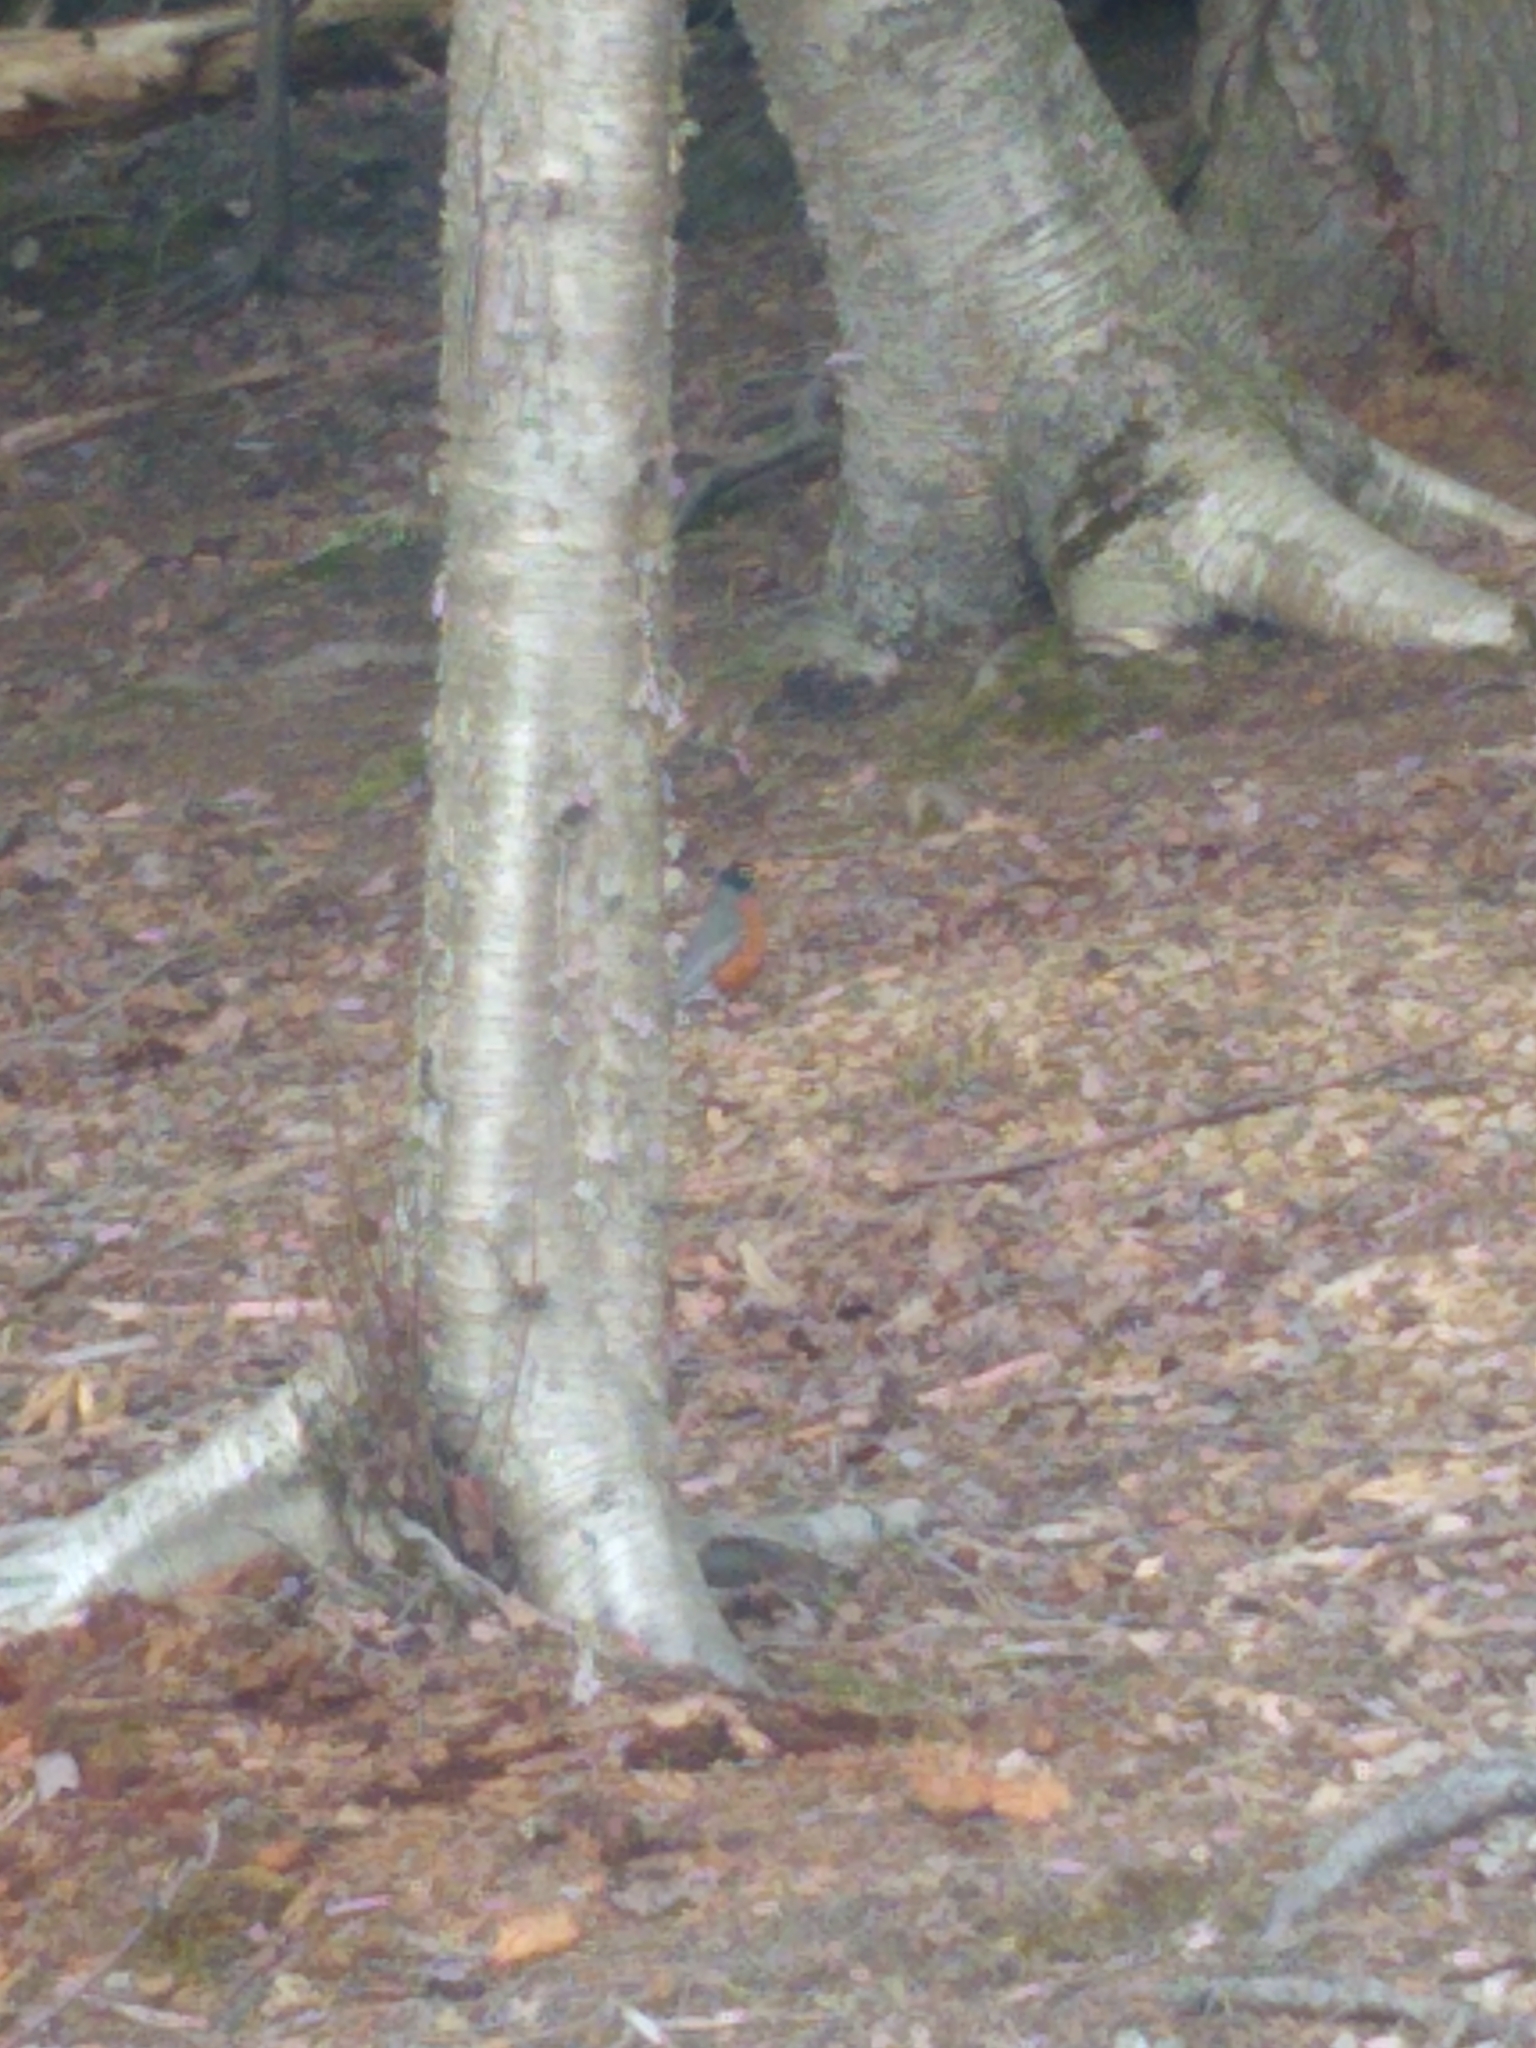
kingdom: Animalia
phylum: Chordata
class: Aves
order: Passeriformes
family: Turdidae
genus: Turdus
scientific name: Turdus migratorius
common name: American robin
